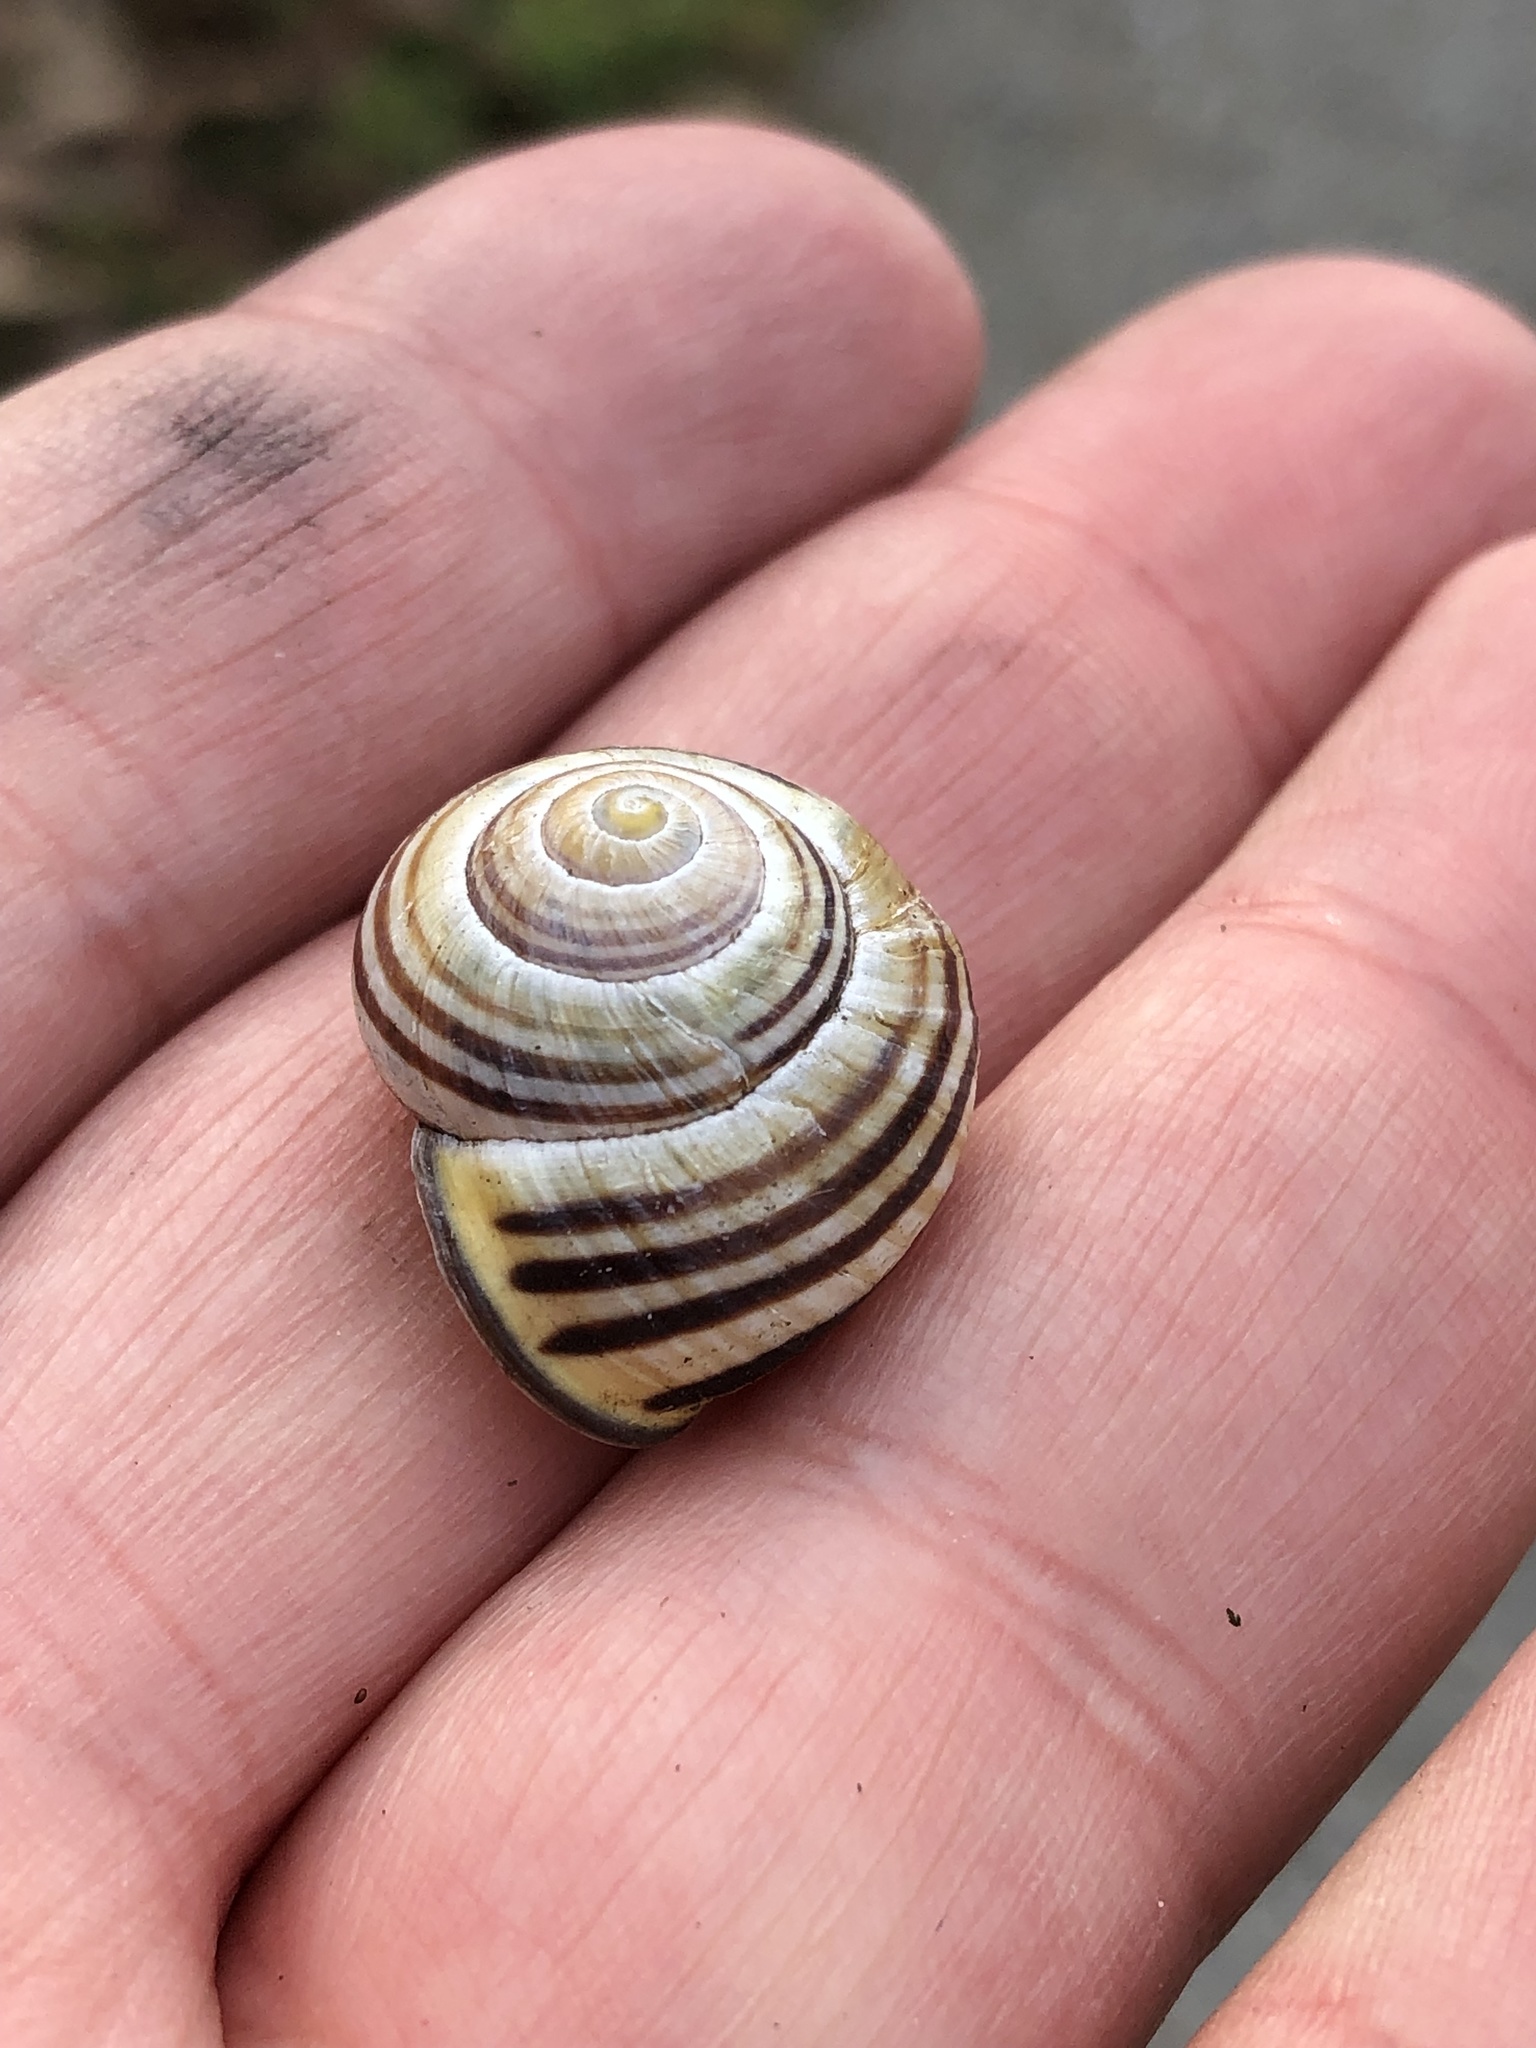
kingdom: Animalia
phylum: Mollusca
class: Gastropoda
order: Stylommatophora
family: Helicidae
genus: Cepaea
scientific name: Cepaea nemoralis
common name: Grovesnail
